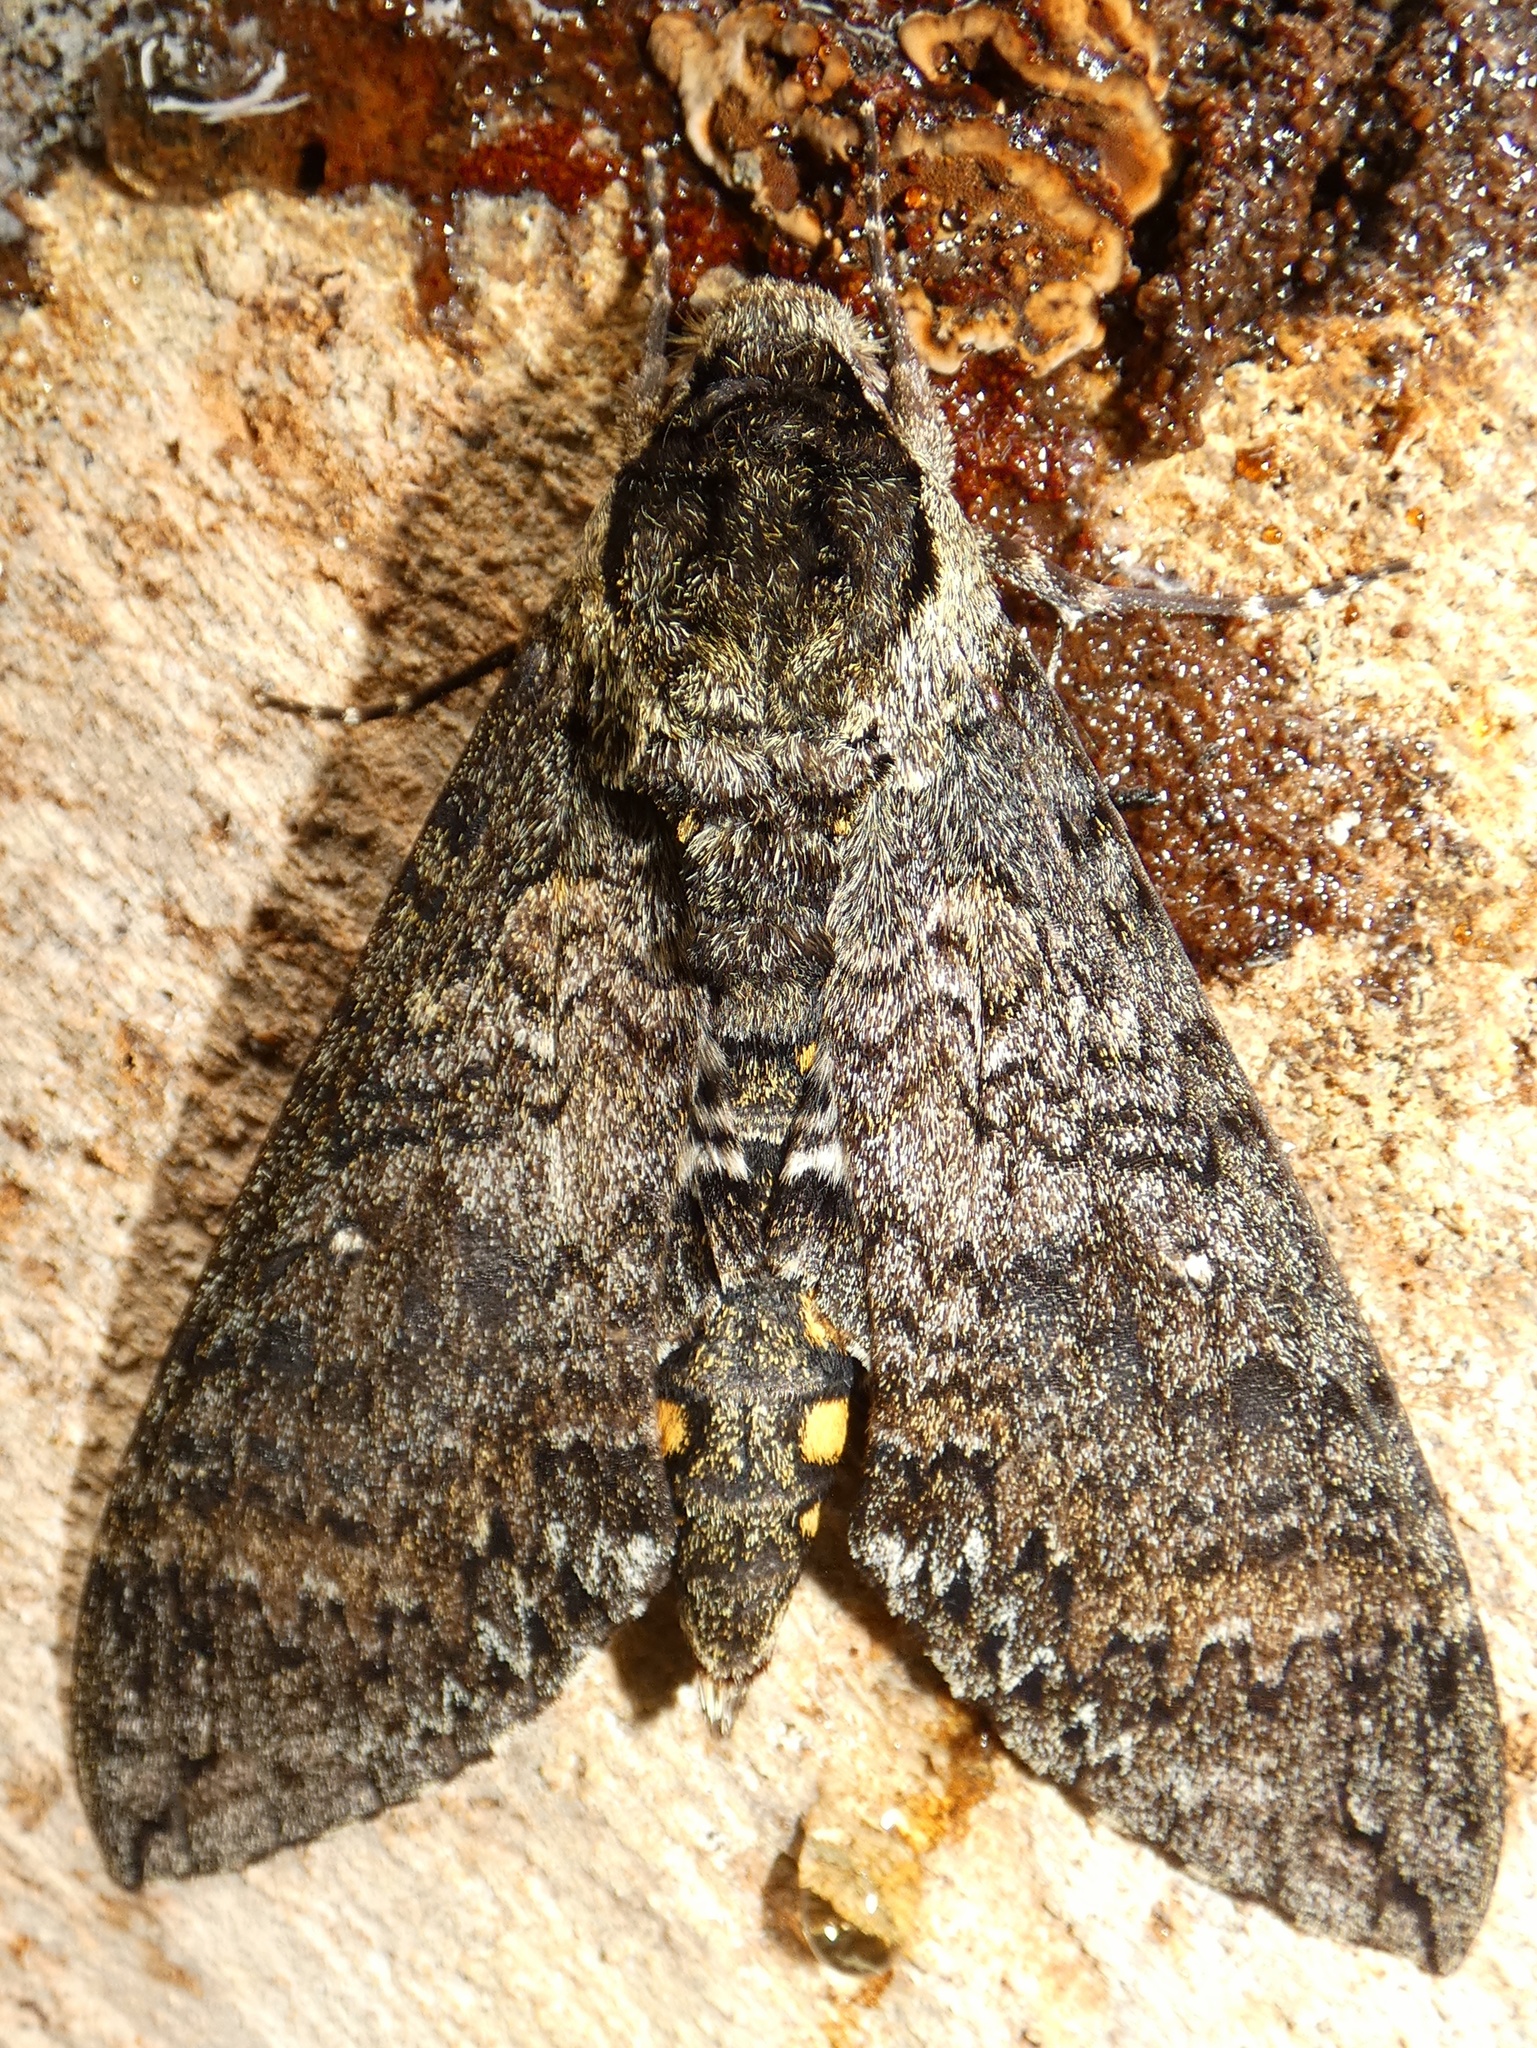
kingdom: Animalia
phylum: Arthropoda
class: Insecta
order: Lepidoptera
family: Sphingidae
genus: Manduca
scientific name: Manduca occulta
